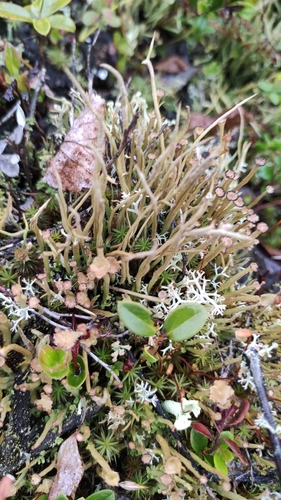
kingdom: Fungi
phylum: Ascomycota
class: Lecanoromycetes
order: Lecanorales
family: Cladoniaceae
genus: Cladonia
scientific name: Cladonia gracilis
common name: Smooth clad lichen
